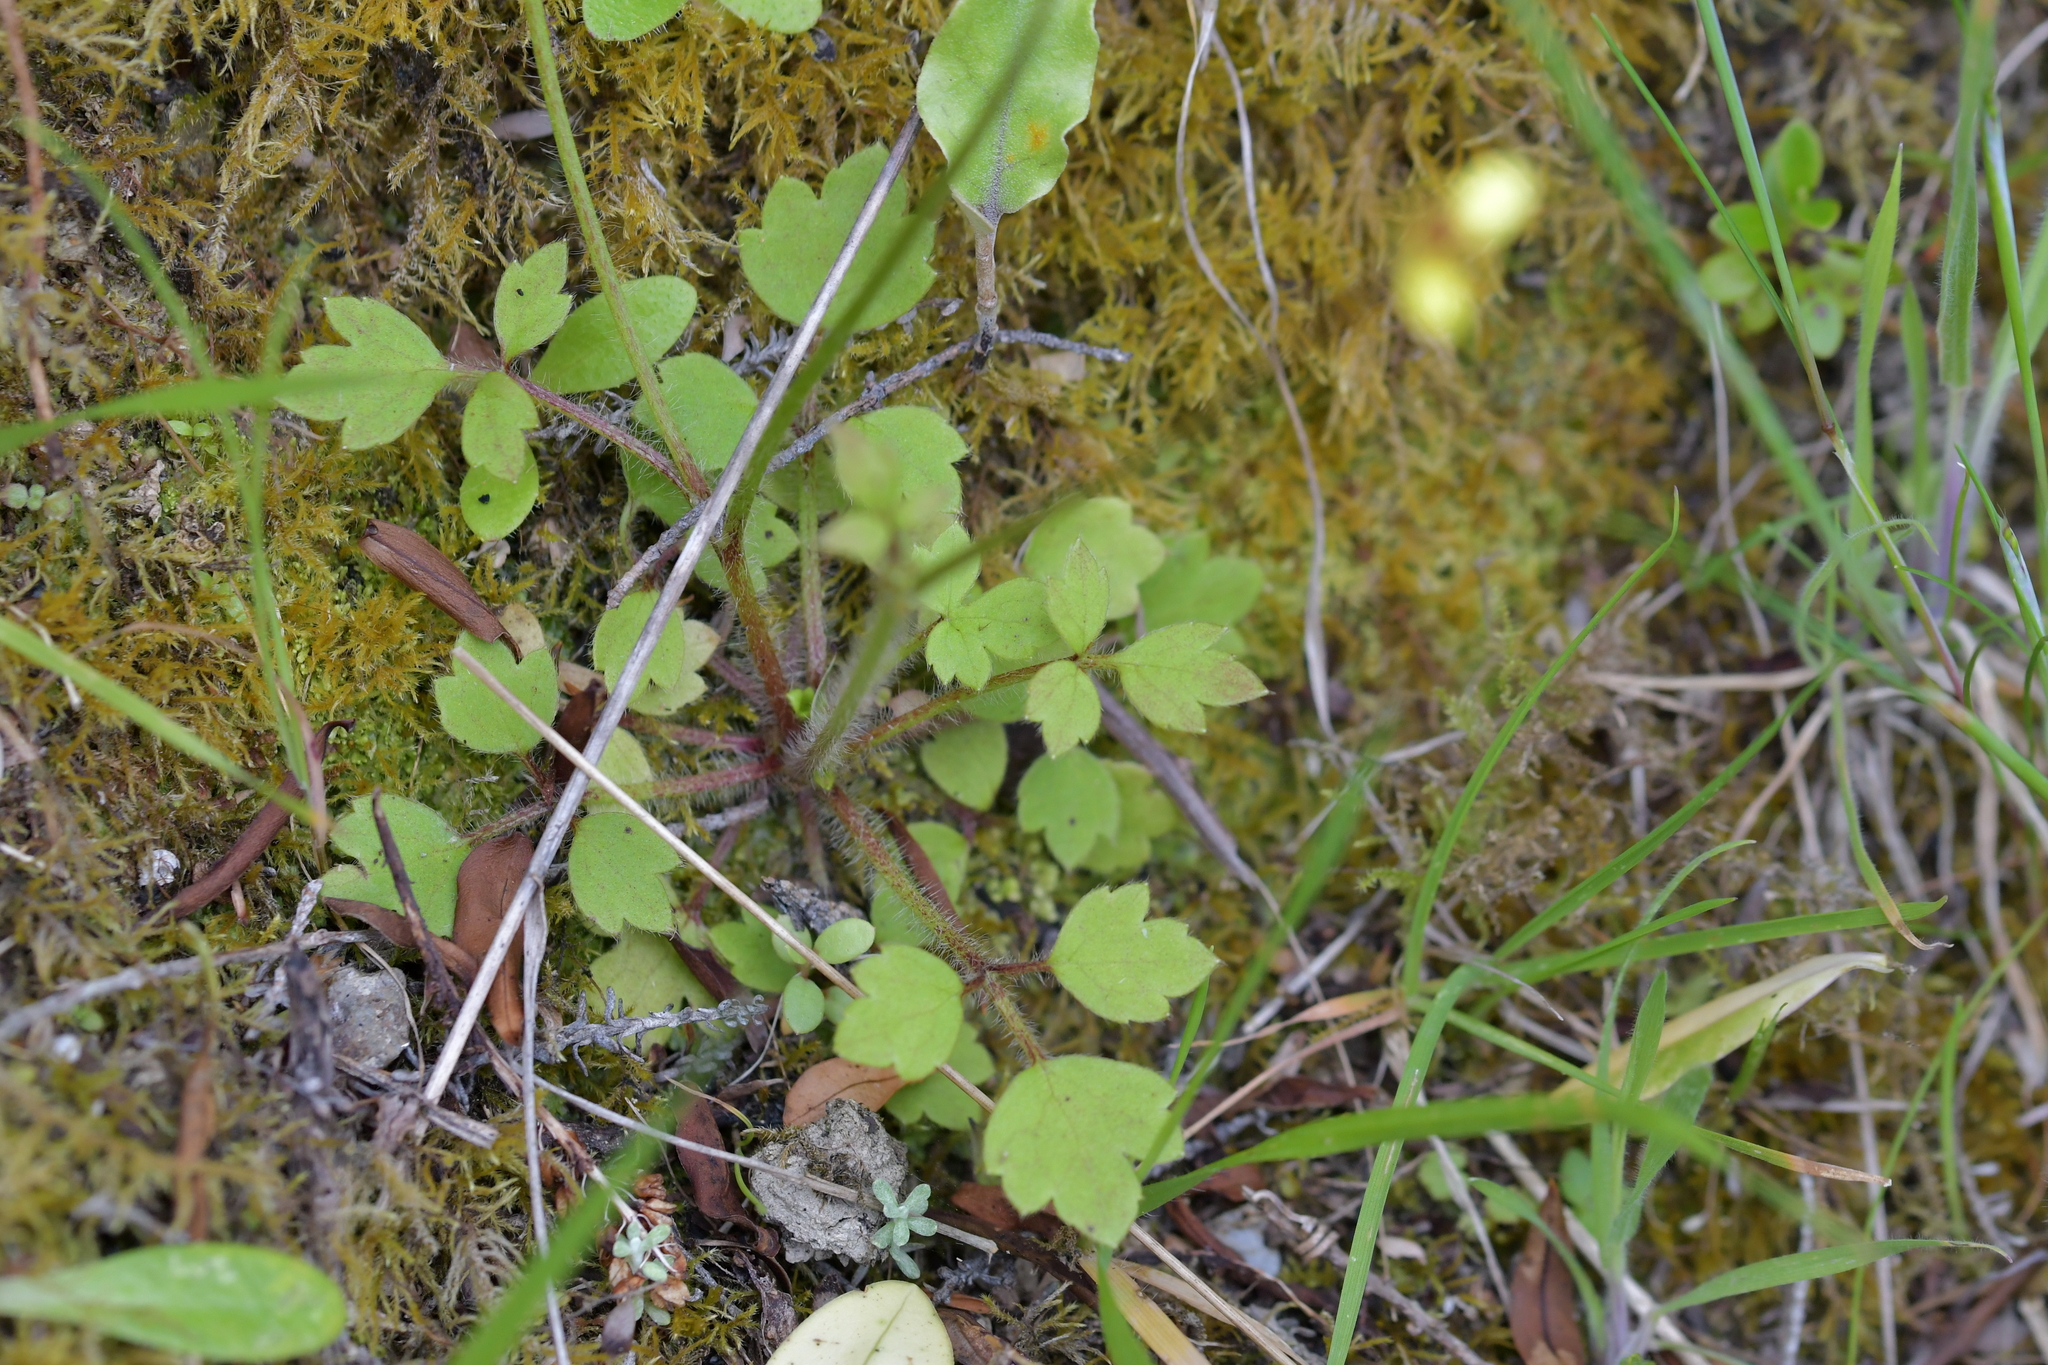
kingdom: Plantae
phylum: Tracheophyta
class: Magnoliopsida
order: Ranunculales
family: Ranunculaceae
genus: Ranunculus
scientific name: Ranunculus reflexus
